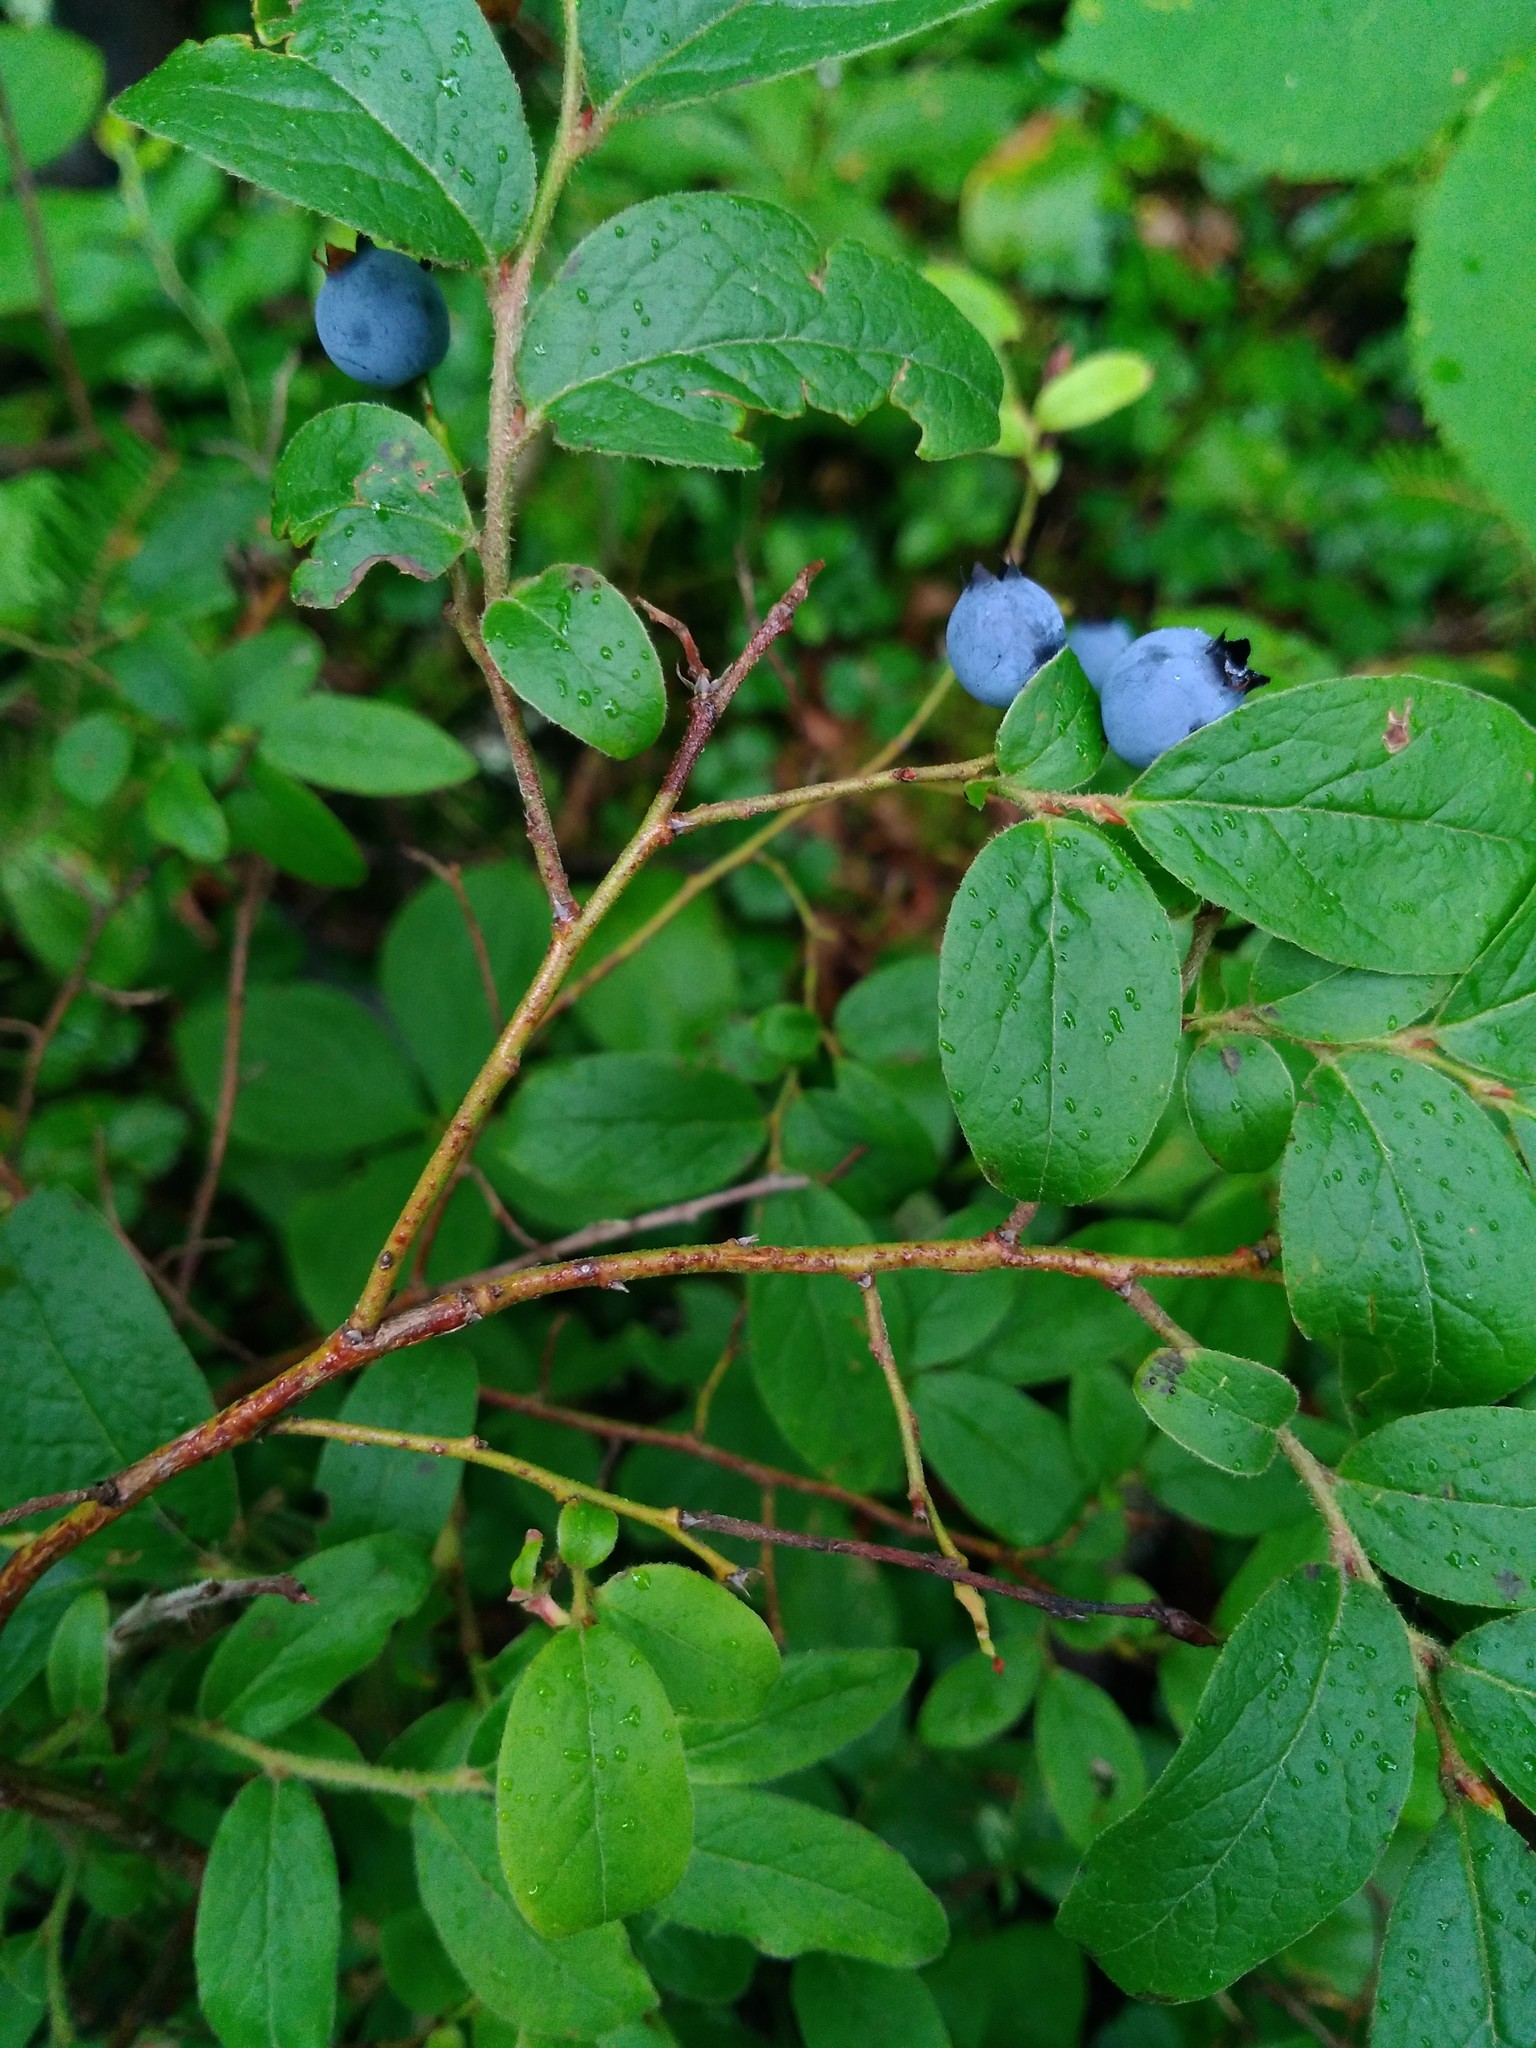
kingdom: Plantae
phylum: Tracheophyta
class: Magnoliopsida
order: Ericales
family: Ericaceae
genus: Vaccinium
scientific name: Vaccinium angustifolium
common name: Early lowbush blueberry
